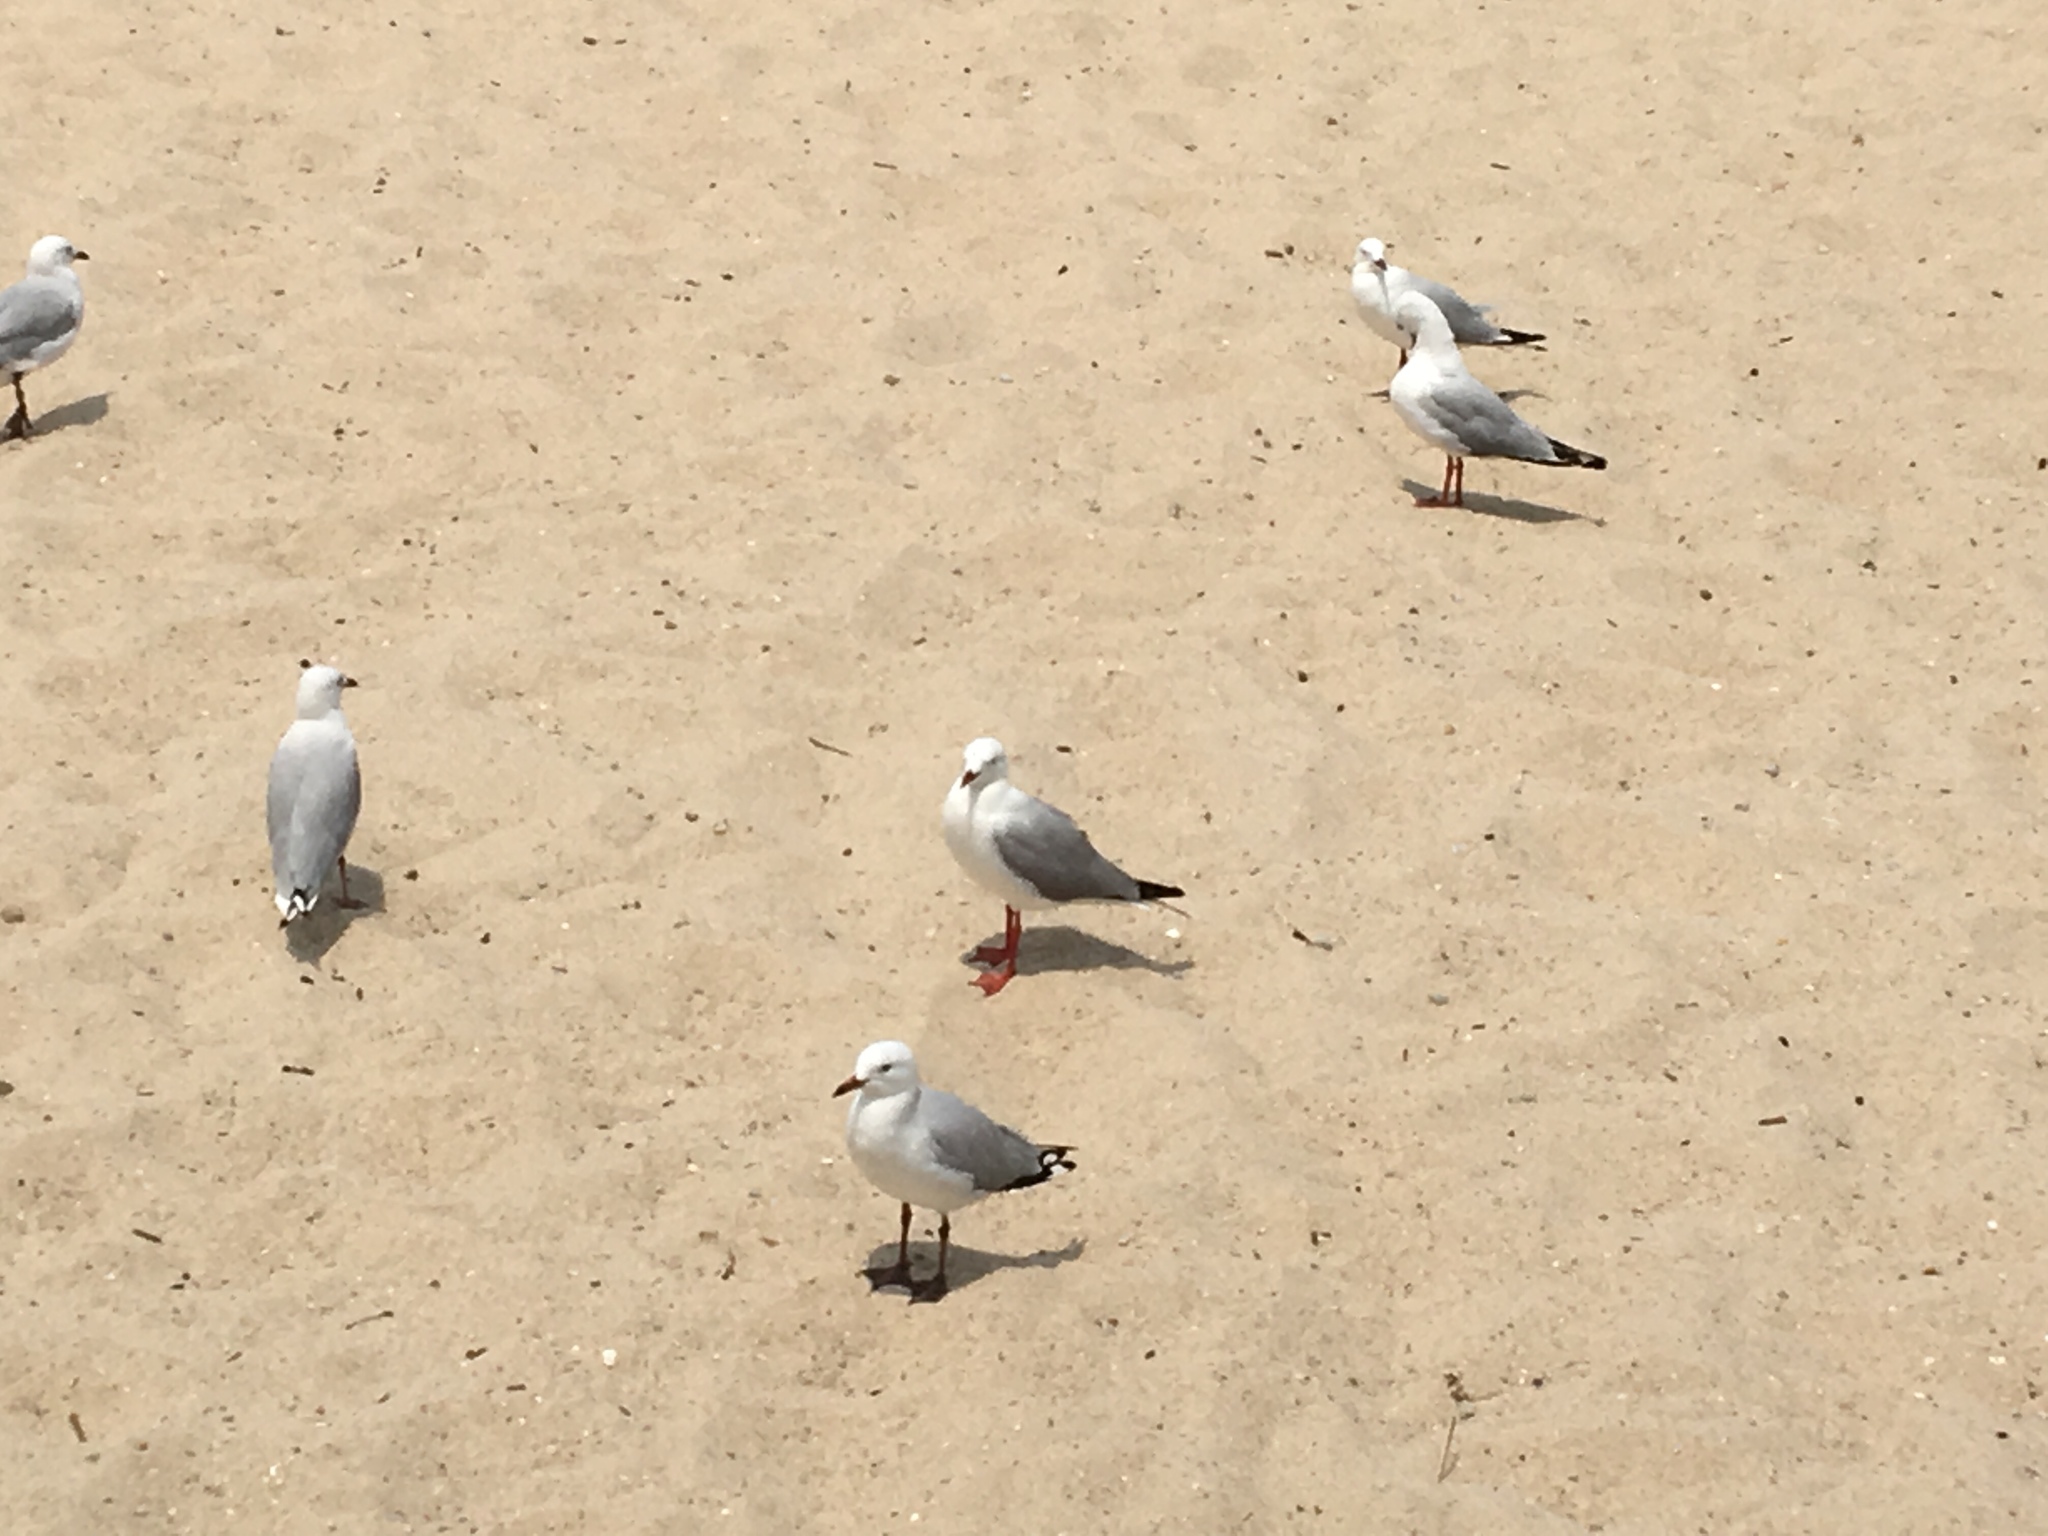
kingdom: Animalia
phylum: Chordata
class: Aves
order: Charadriiformes
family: Laridae
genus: Chroicocephalus
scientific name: Chroicocephalus novaehollandiae
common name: Silver gull
